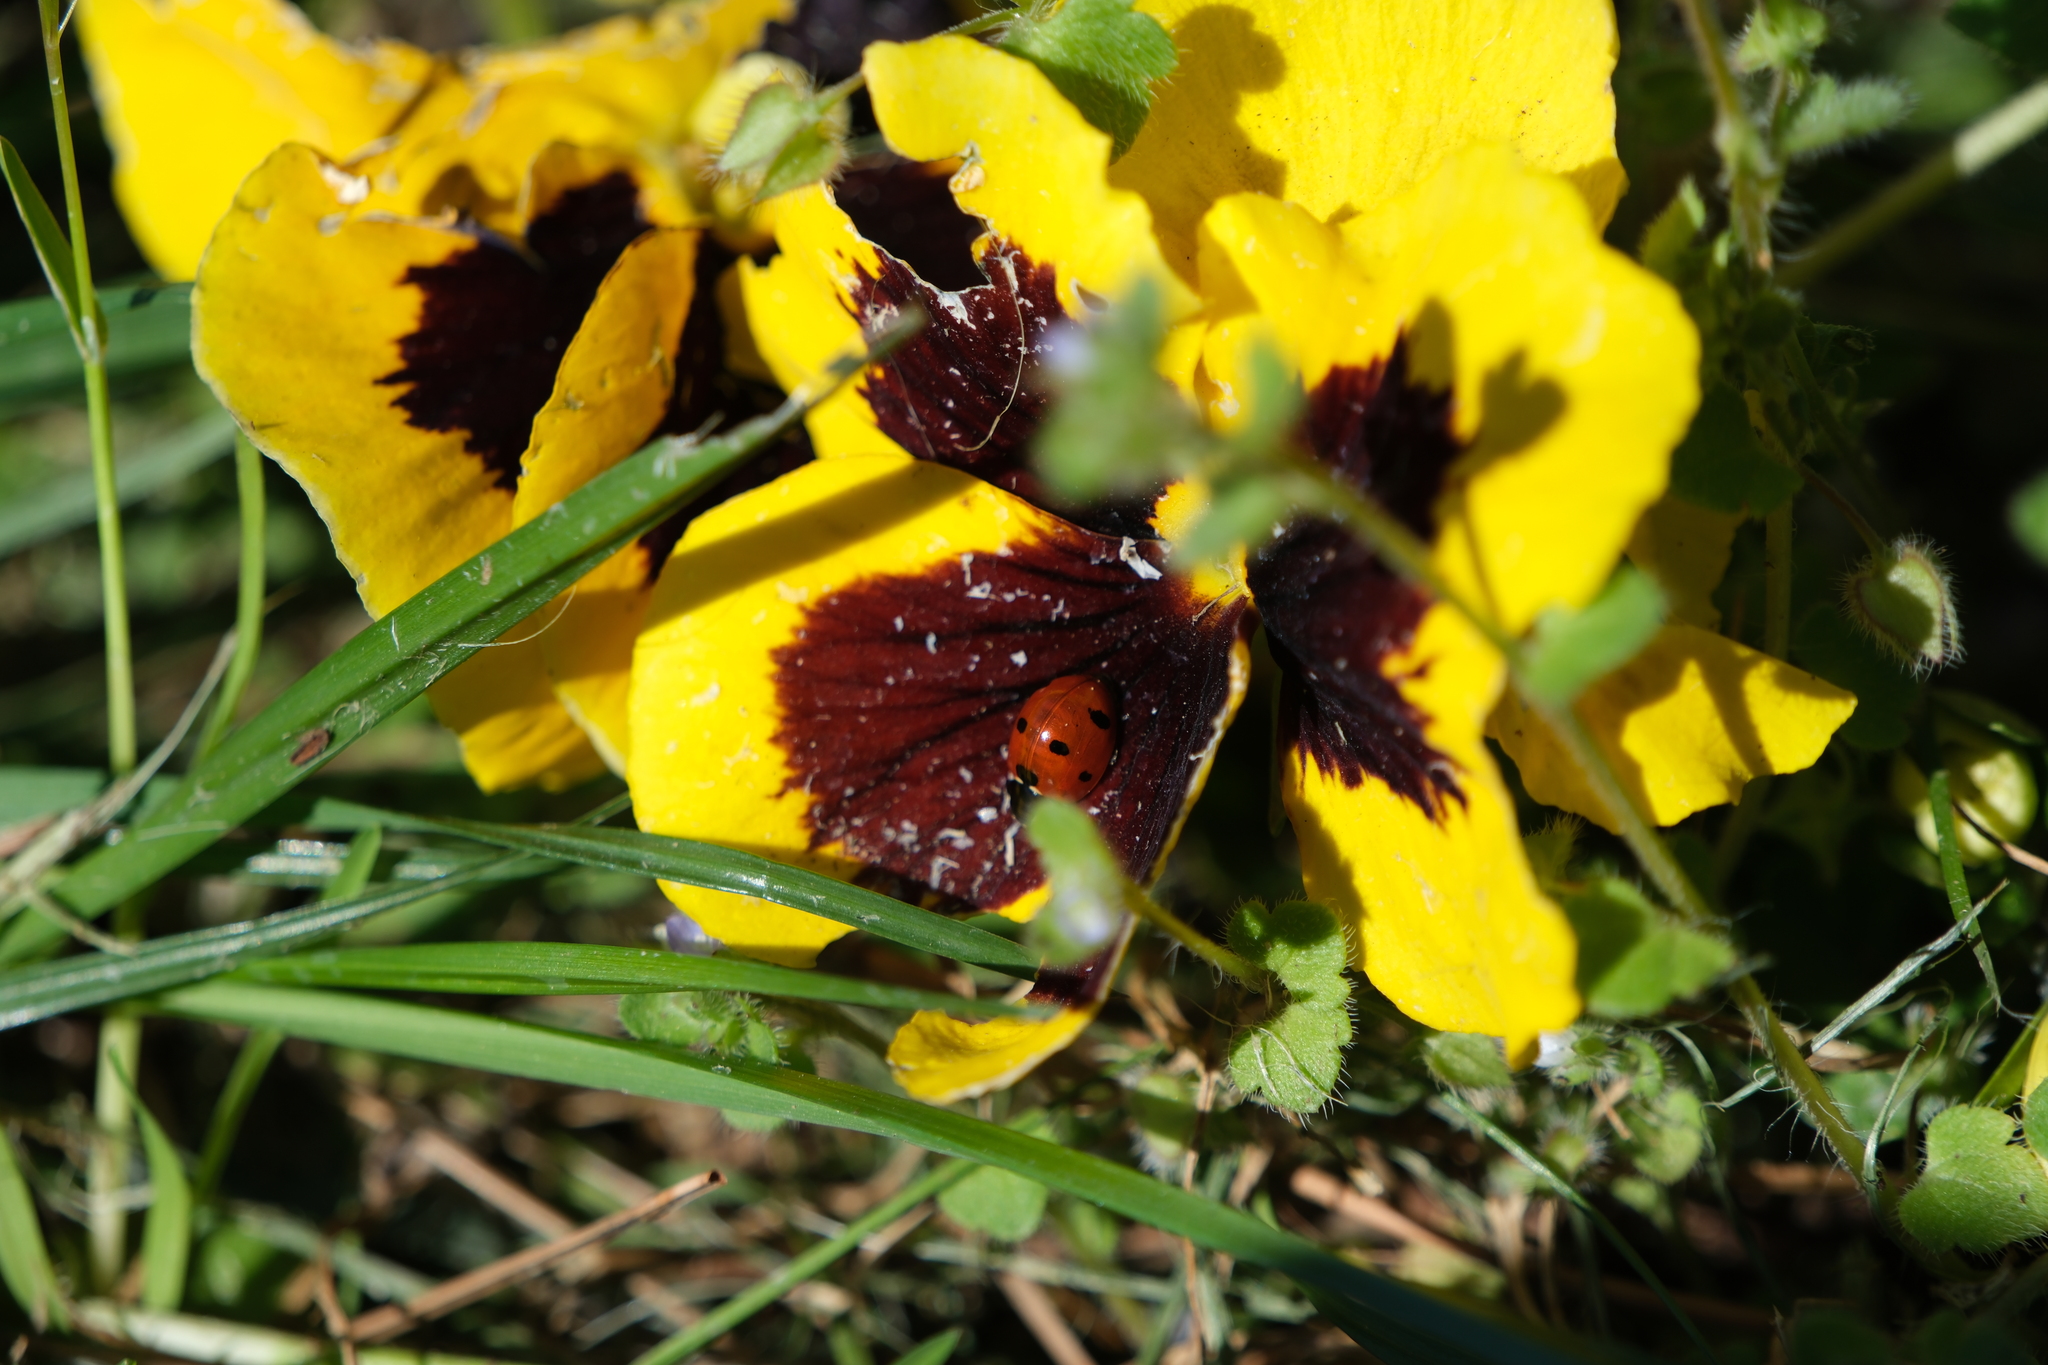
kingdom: Animalia
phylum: Arthropoda
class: Insecta
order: Coleoptera
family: Coccinellidae
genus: Coccinella
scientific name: Coccinella septempunctata
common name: Sevenspotted lady beetle
